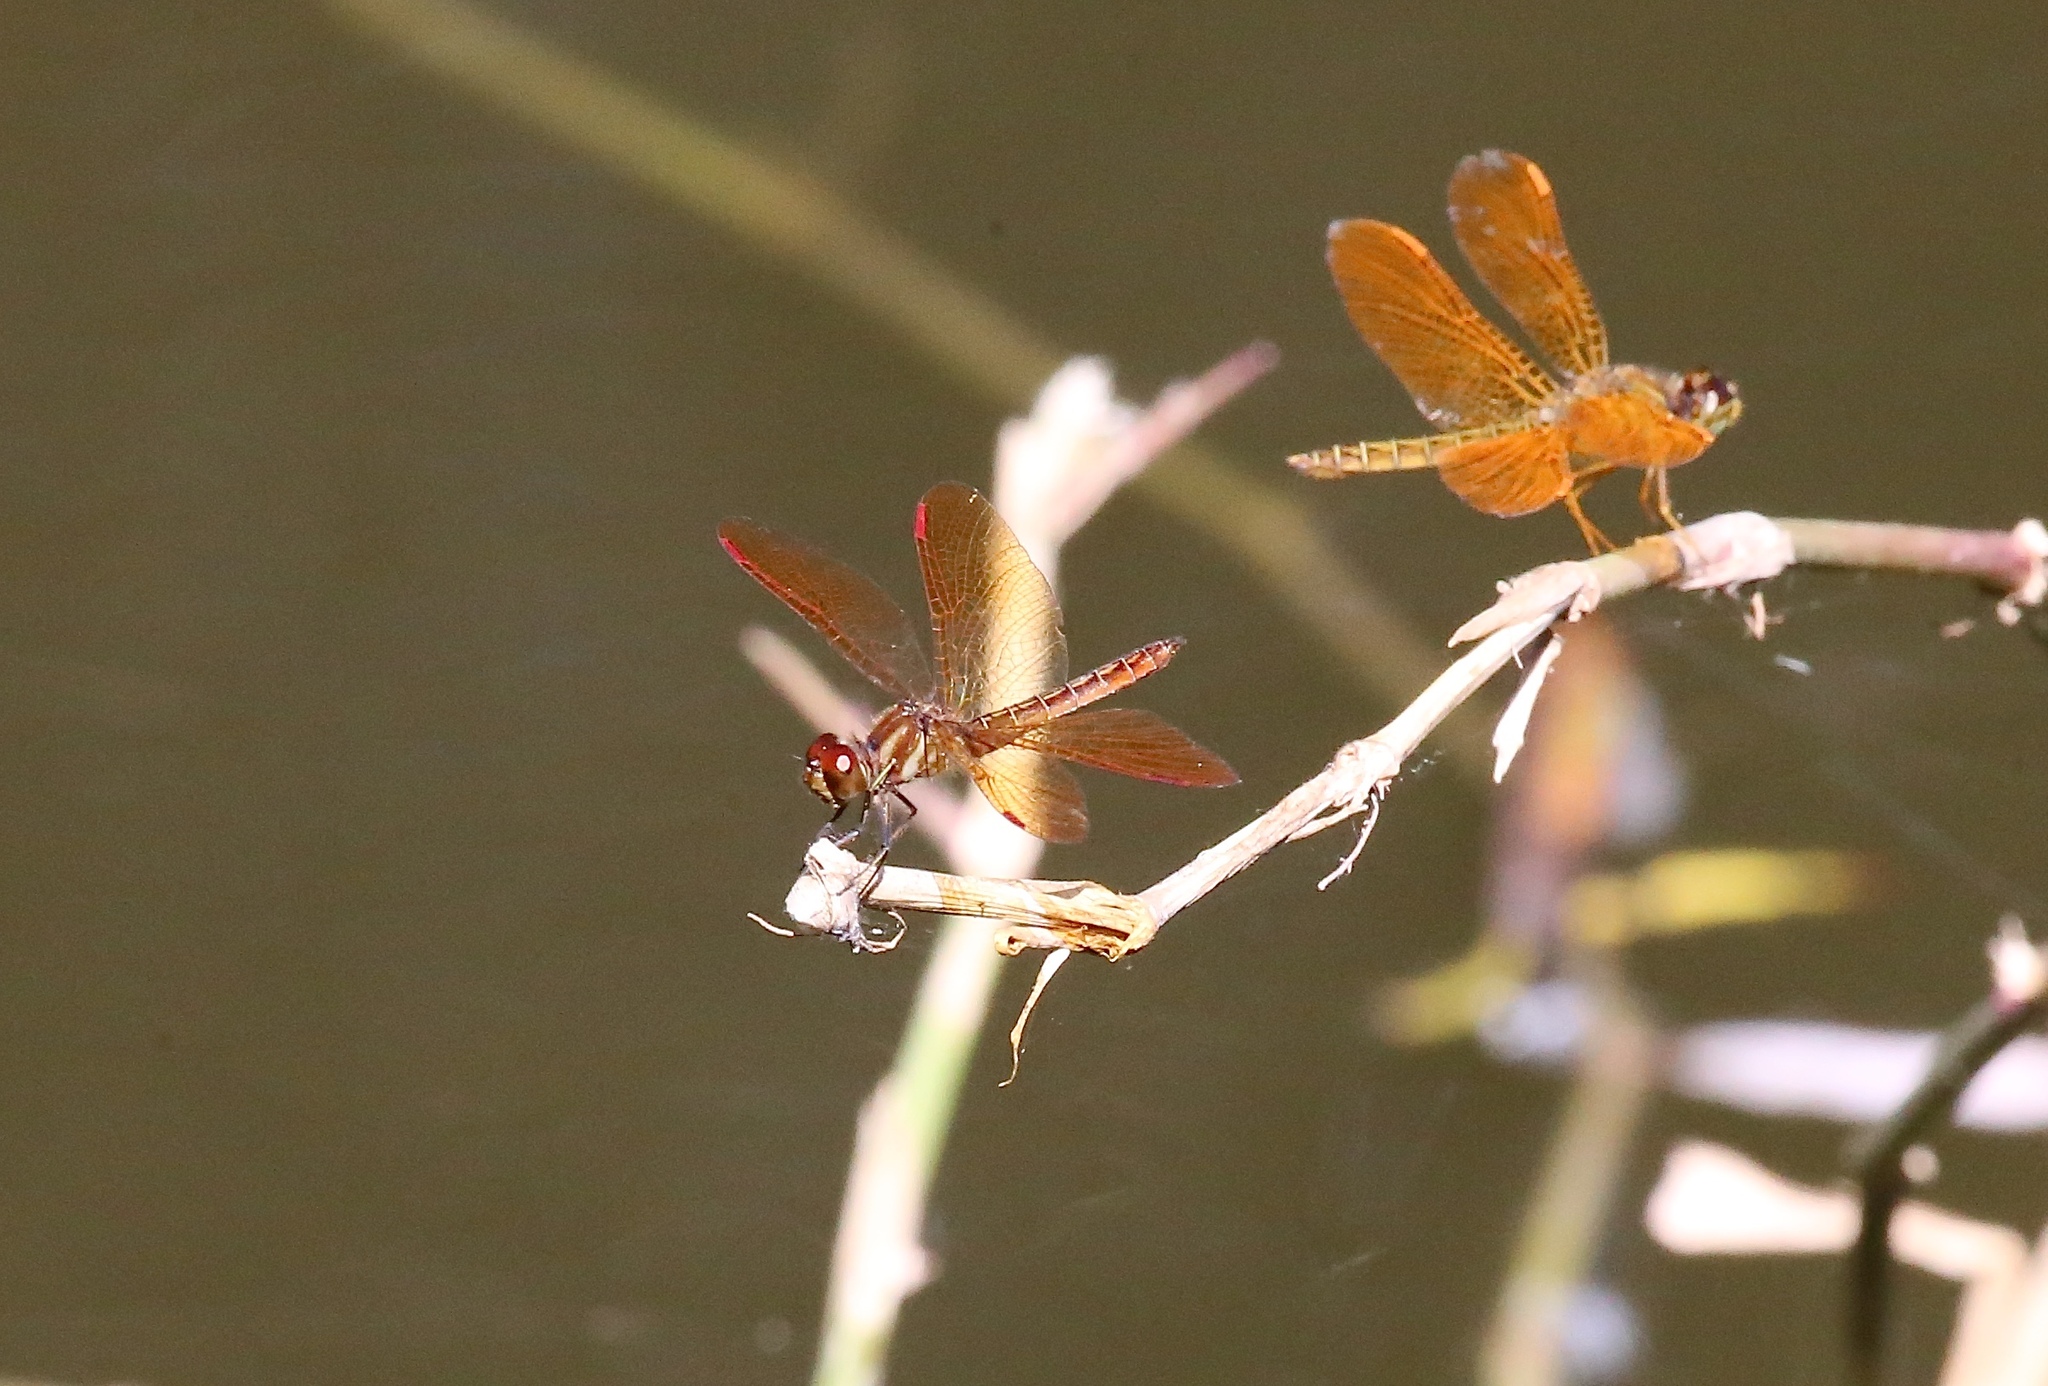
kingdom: Animalia
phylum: Arthropoda
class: Insecta
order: Odonata
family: Libellulidae
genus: Perithemis
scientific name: Perithemis domitia
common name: Slough amberwing
